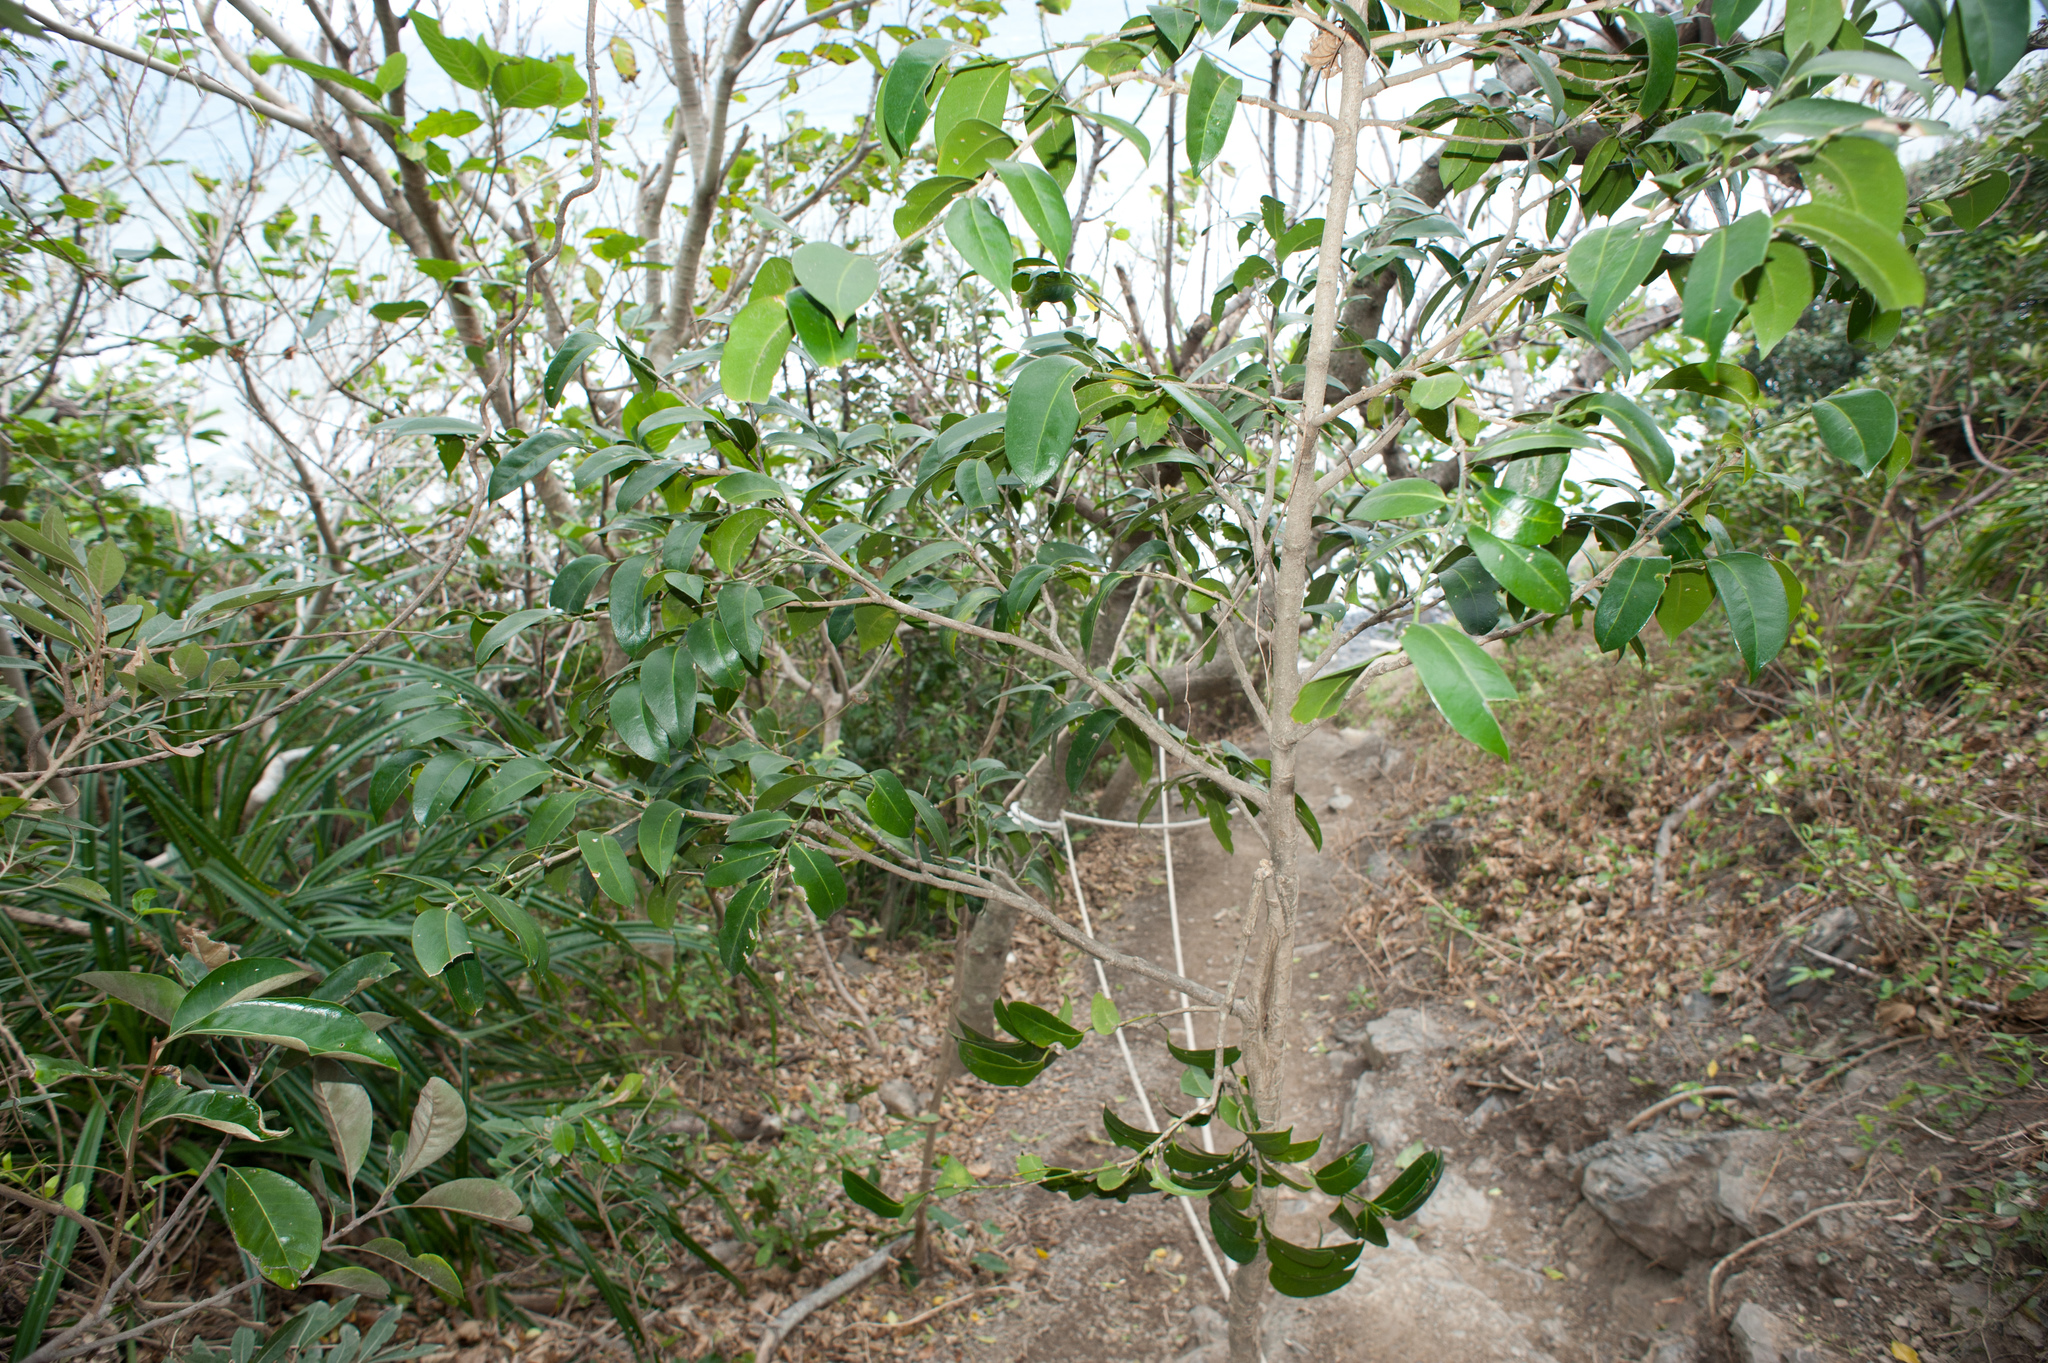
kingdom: Plantae
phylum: Tracheophyta
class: Magnoliopsida
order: Malpighiales
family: Putranjivaceae
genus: Drypetes
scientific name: Drypetes littoralis
